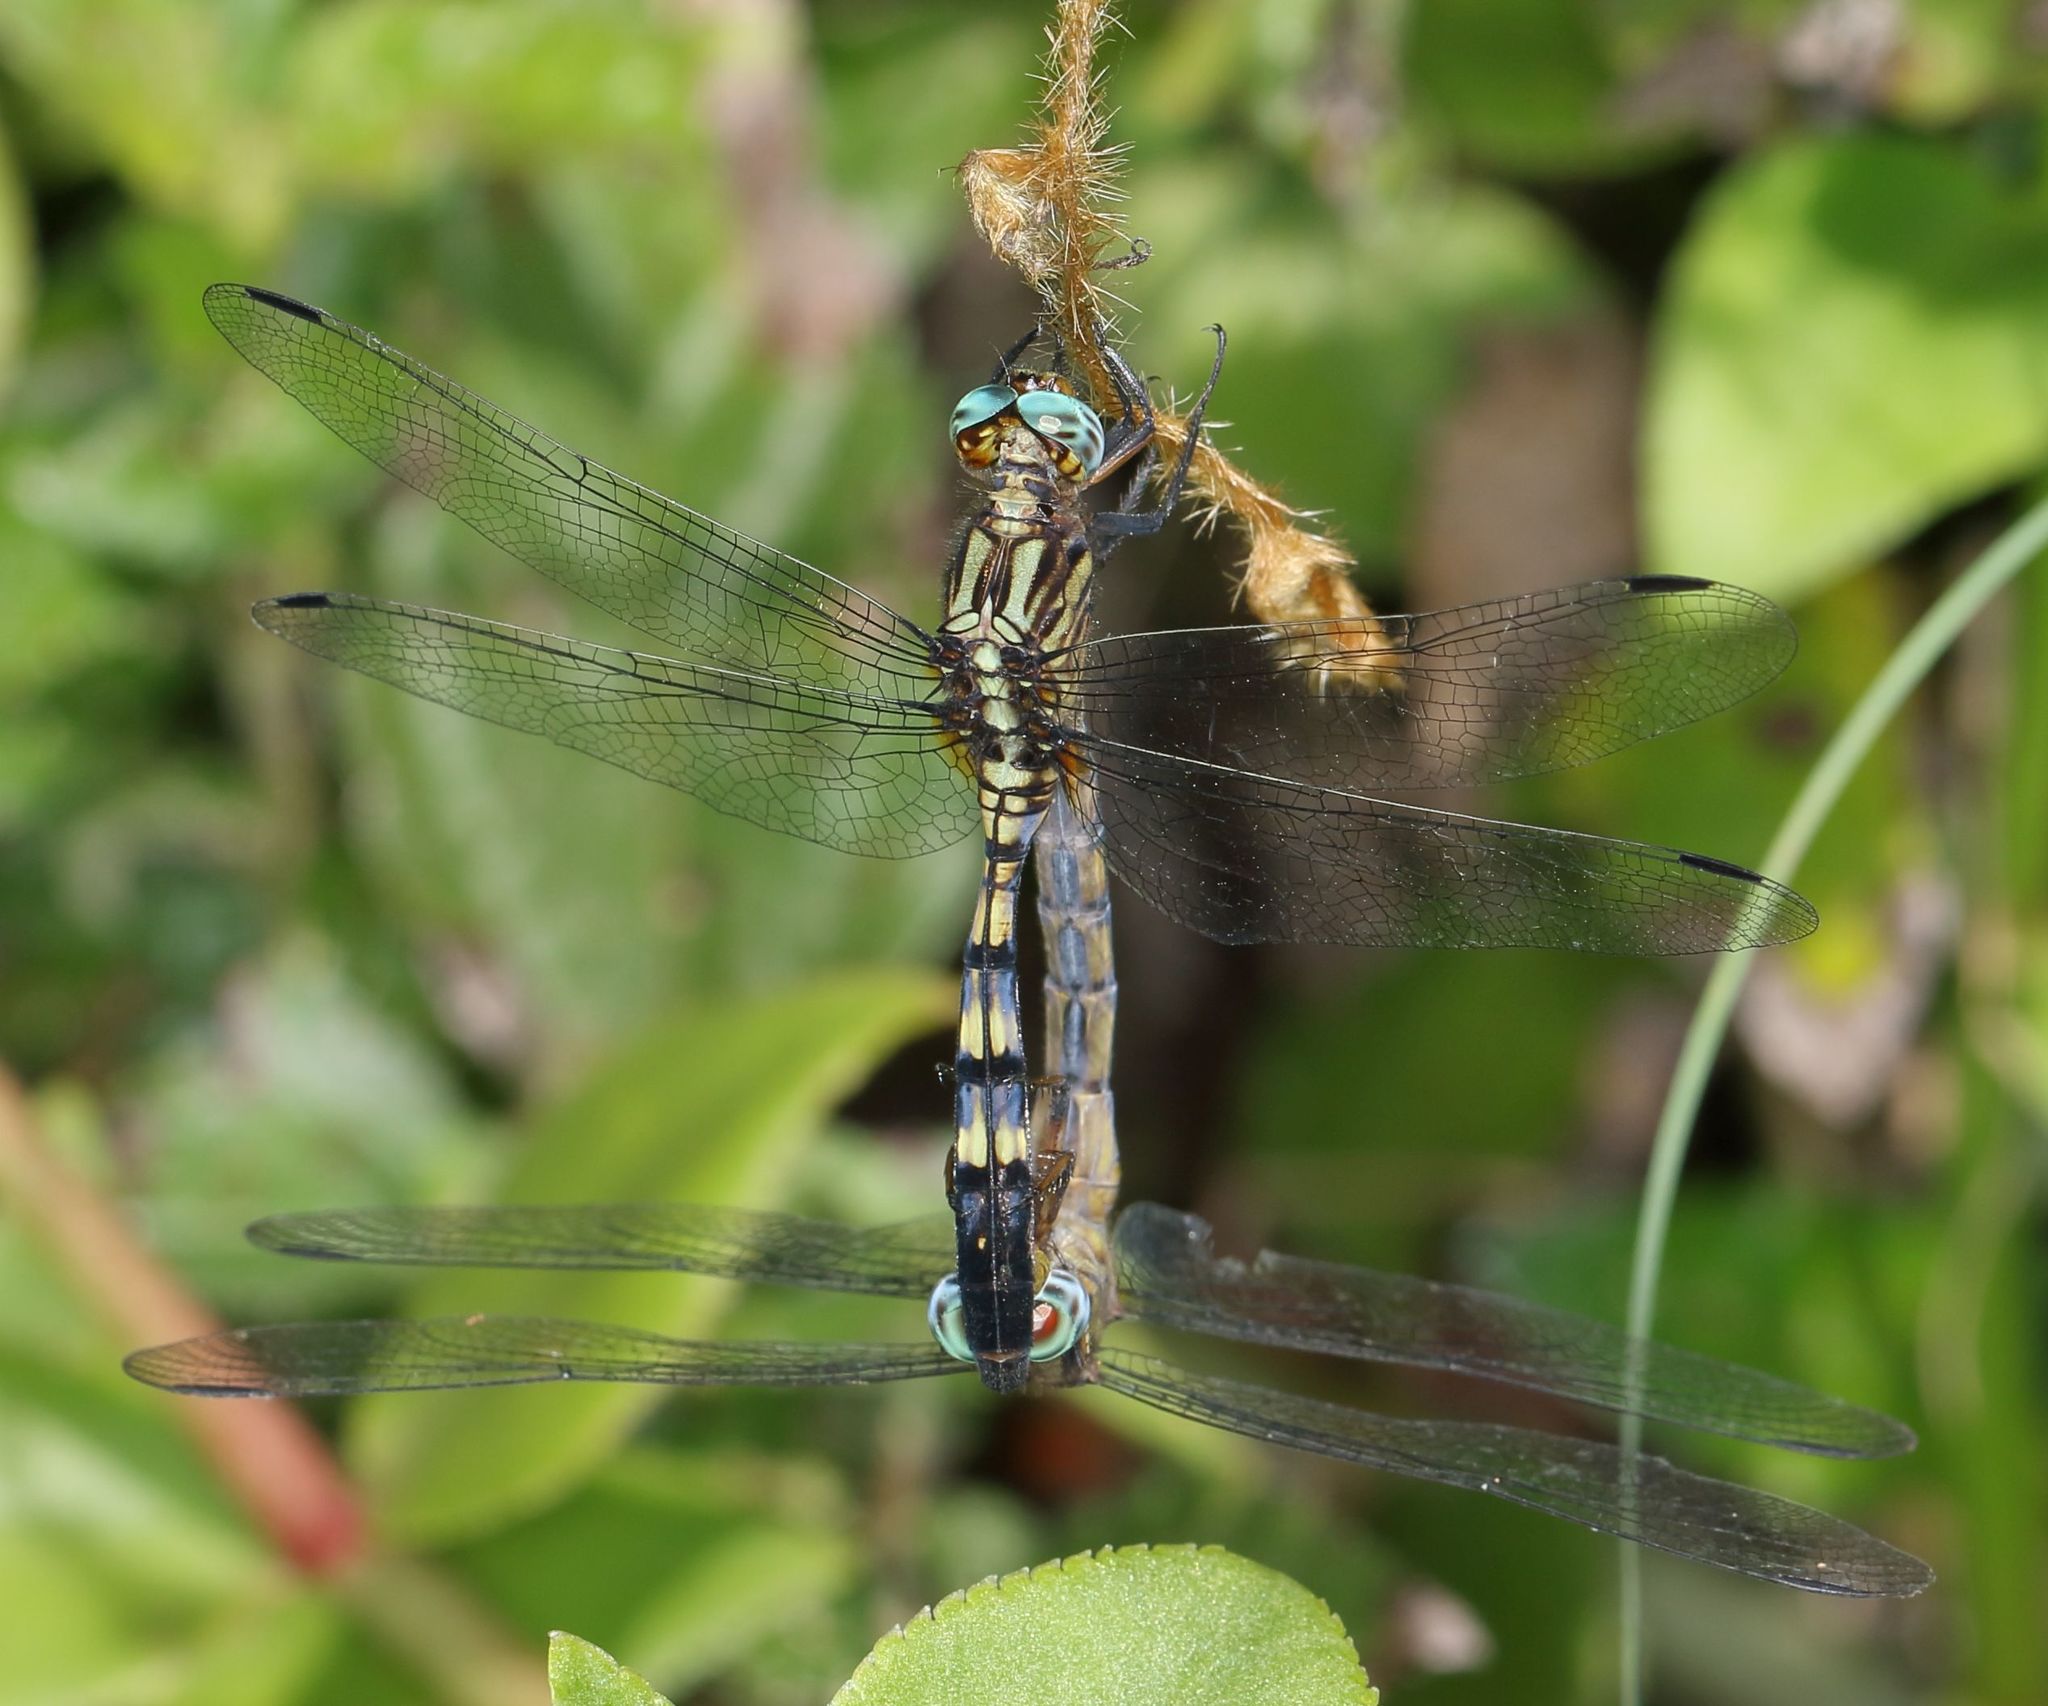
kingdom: Animalia
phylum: Arthropoda
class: Insecta
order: Odonata
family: Libellulidae
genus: Orthetrum
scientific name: Orthetrum julia
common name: Julia skimmer
